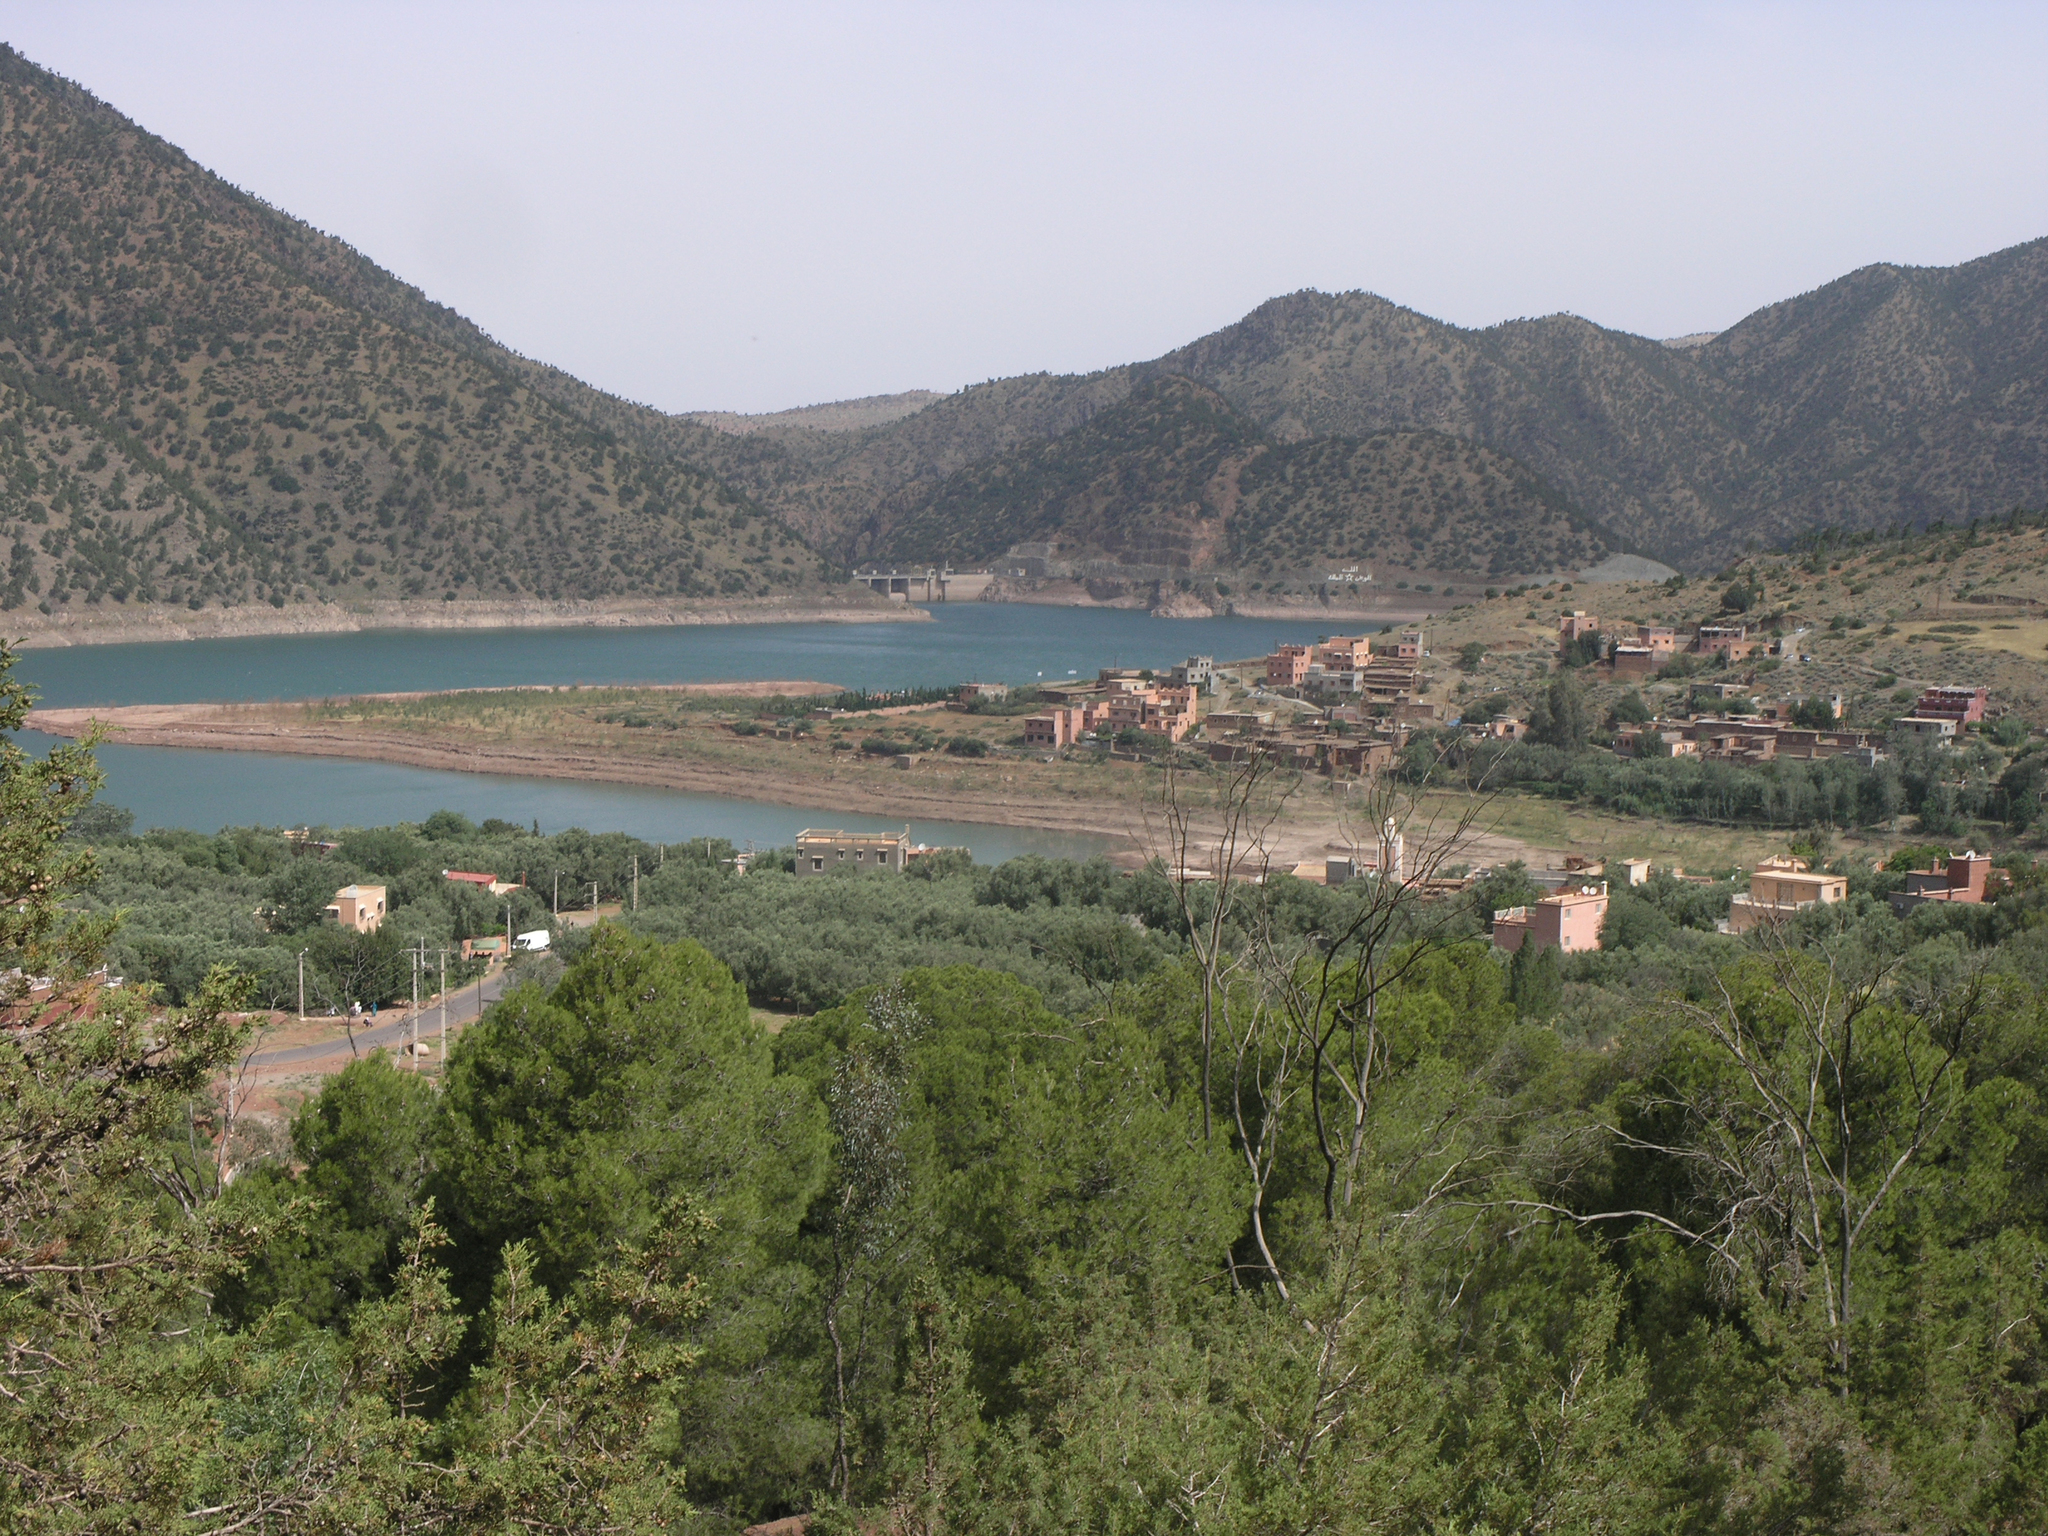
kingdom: Plantae
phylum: Tracheophyta
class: Pinopsida
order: Pinales
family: Pinaceae
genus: Pinus
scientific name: Pinus halepensis
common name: Aleppo pine
